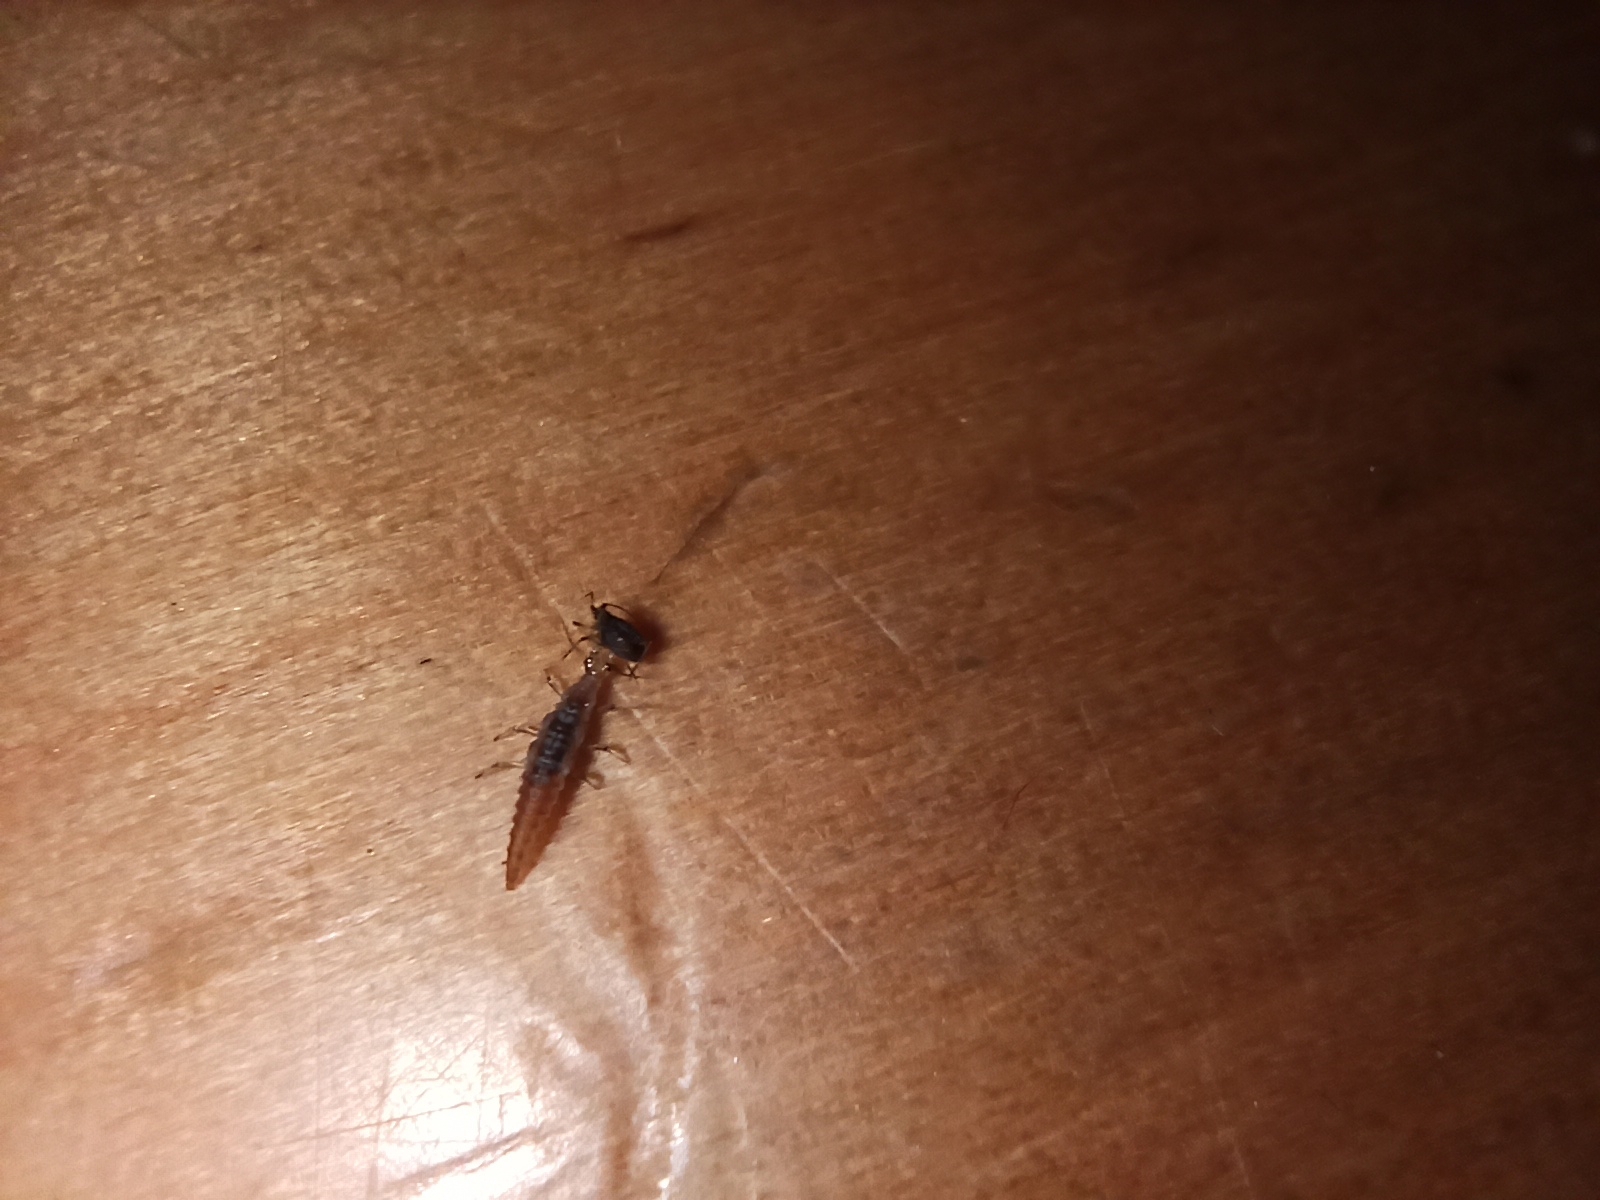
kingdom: Animalia
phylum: Arthropoda
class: Insecta
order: Neuroptera
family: Hemerobiidae
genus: Micromus
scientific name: Micromus tasmaniae
